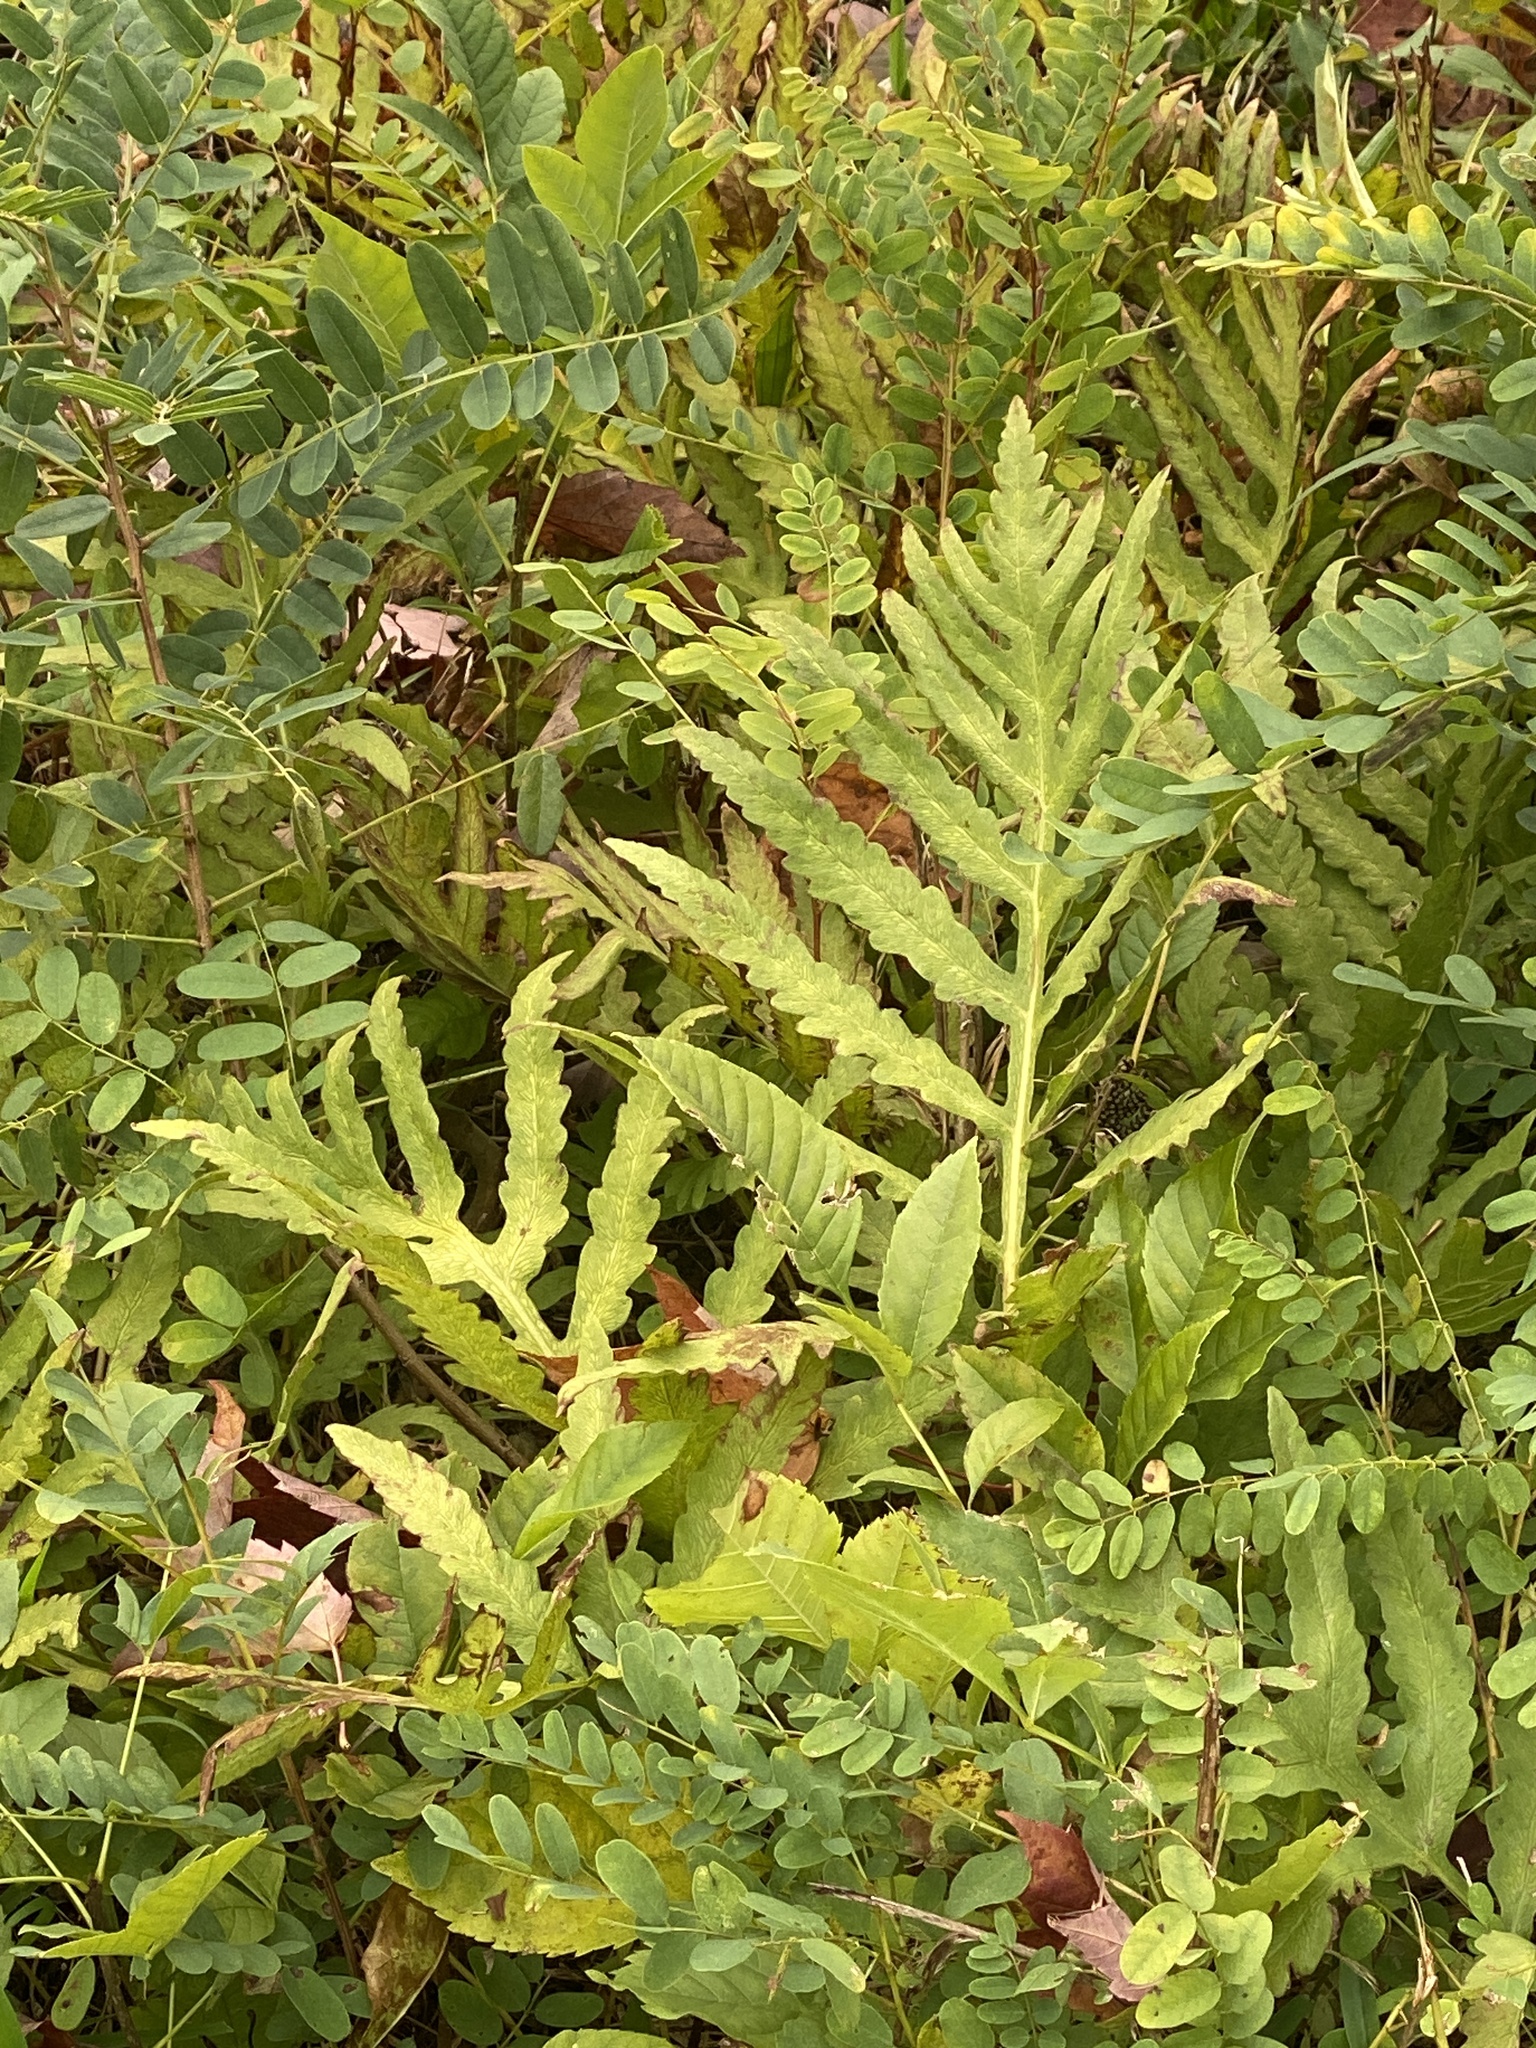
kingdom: Plantae
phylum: Tracheophyta
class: Polypodiopsida
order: Polypodiales
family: Onocleaceae
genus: Onoclea
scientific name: Onoclea sensibilis
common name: Sensitive fern
